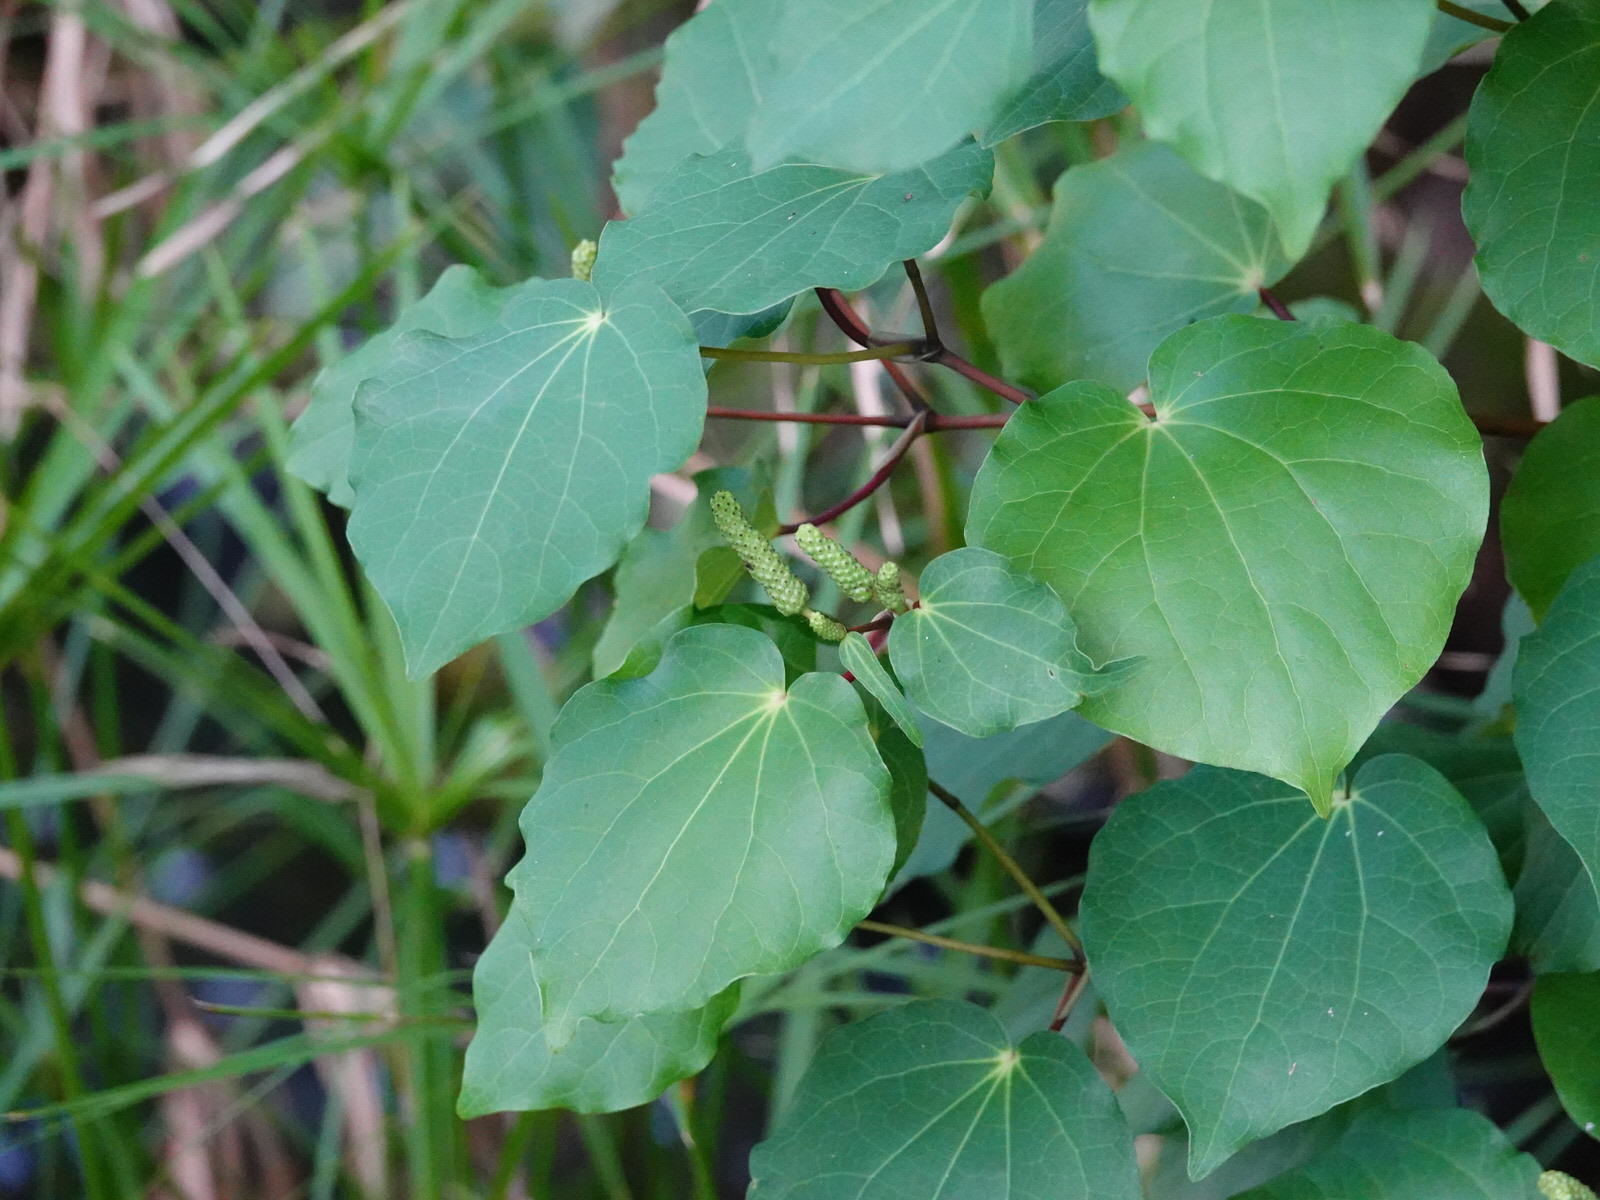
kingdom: Plantae
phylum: Tracheophyta
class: Magnoliopsida
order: Piperales
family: Piperaceae
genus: Macropiper
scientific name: Macropiper excelsum
